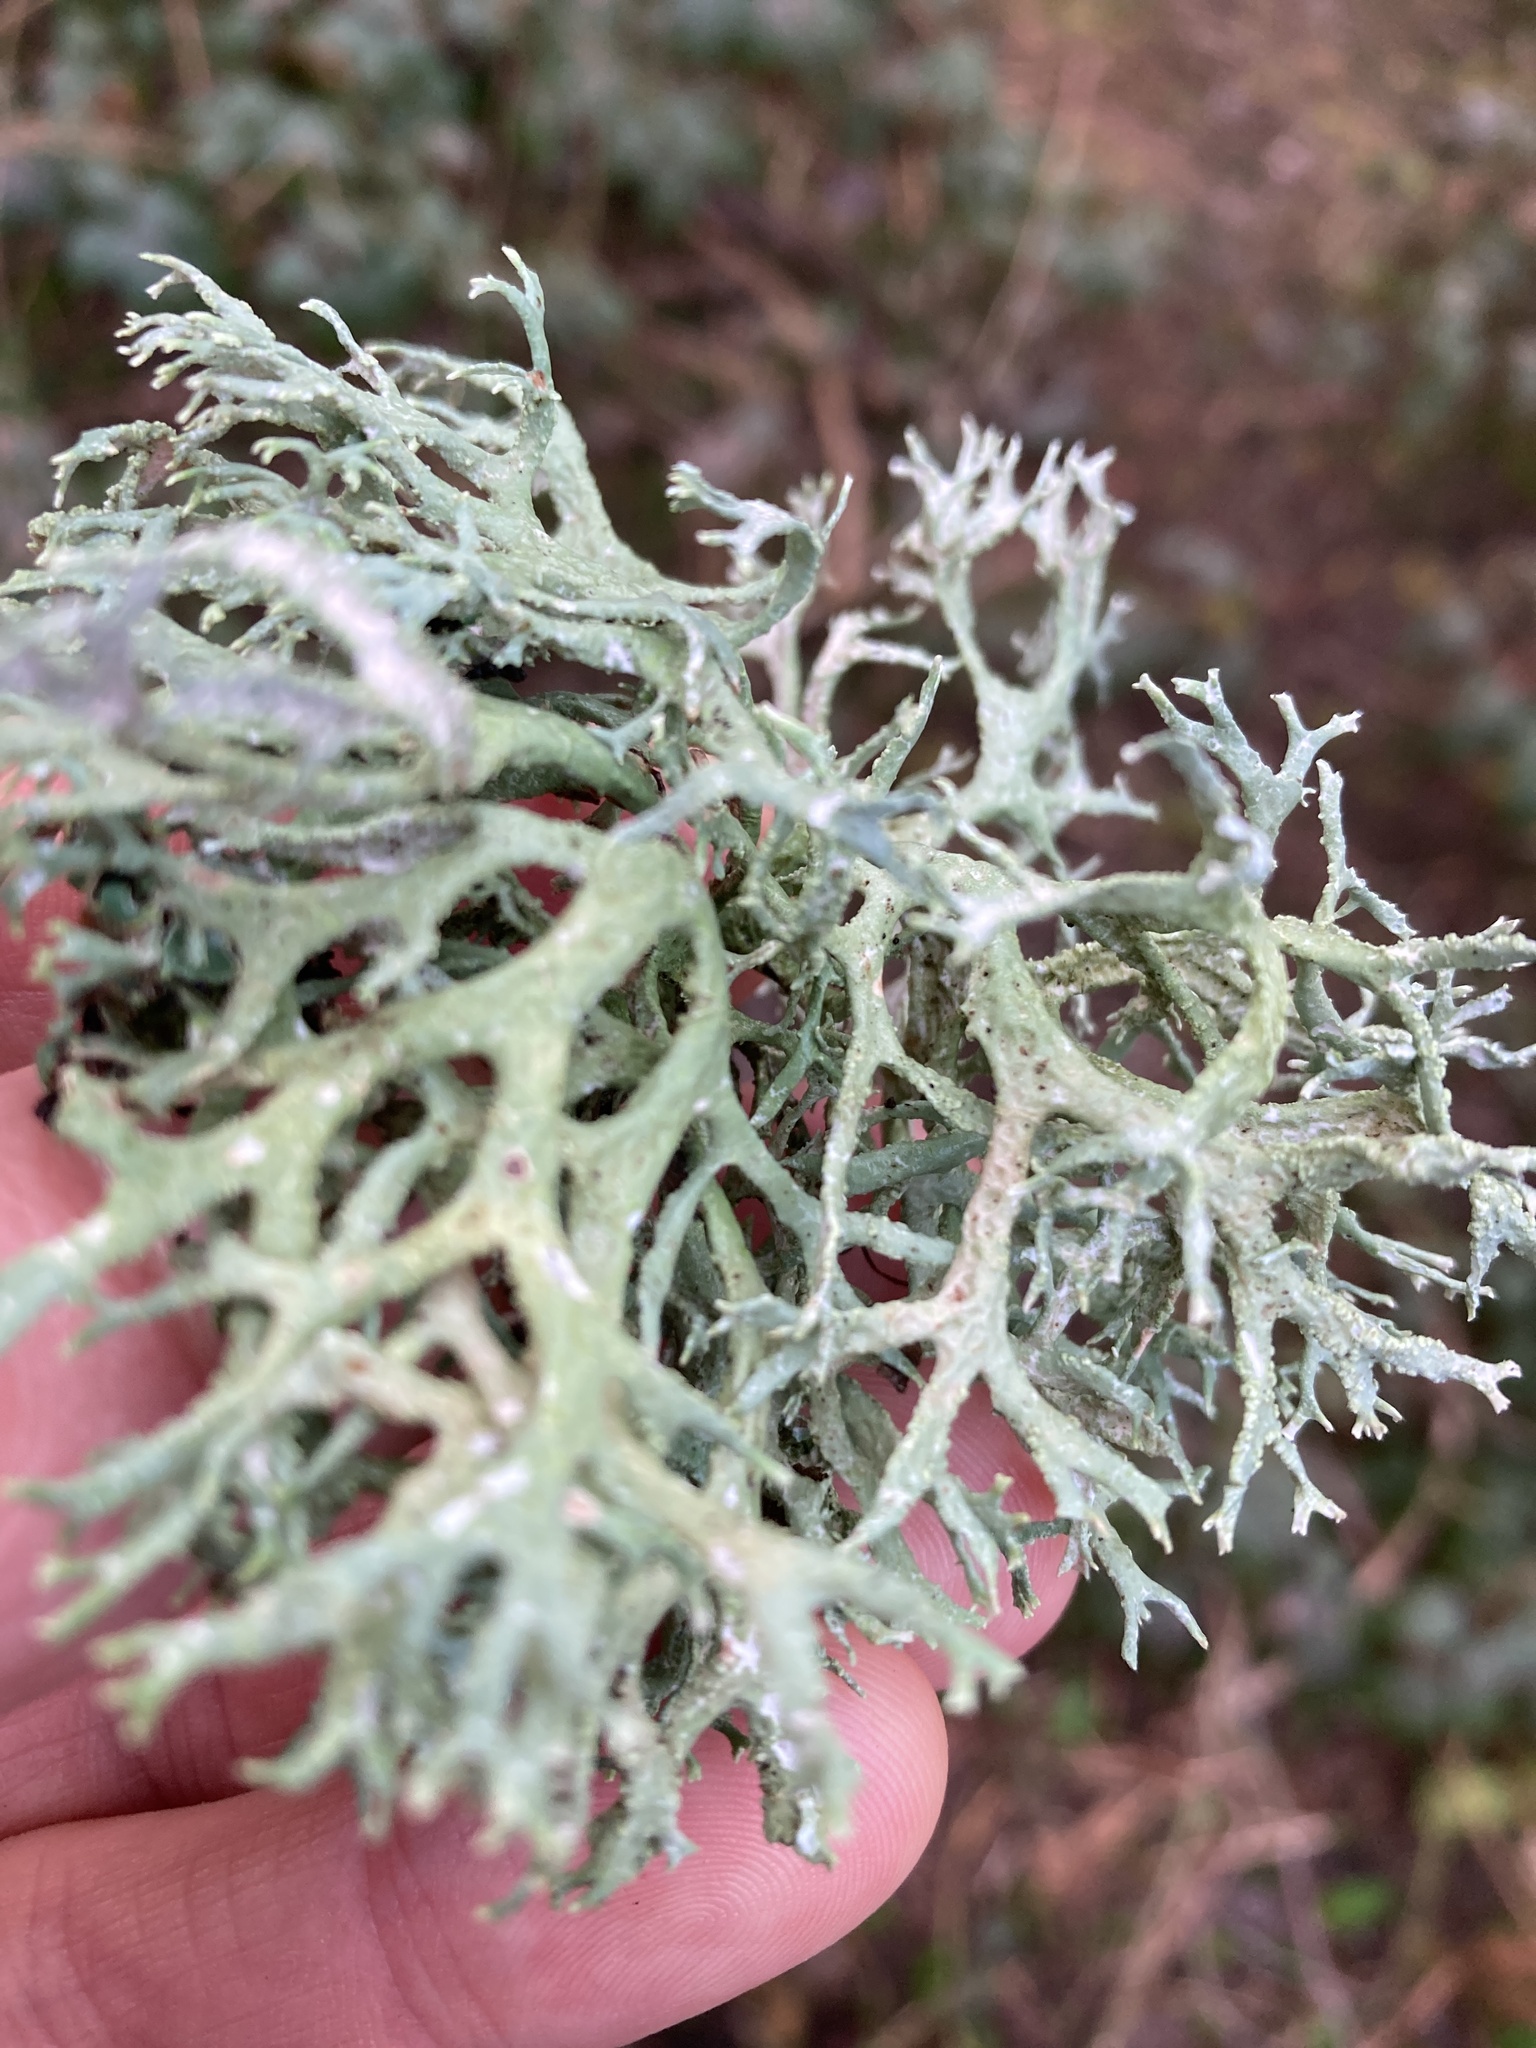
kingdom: Fungi
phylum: Ascomycota
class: Lecanoromycetes
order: Lecanorales
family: Parmeliaceae
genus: Evernia
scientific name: Evernia prunastri
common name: Oak moss
